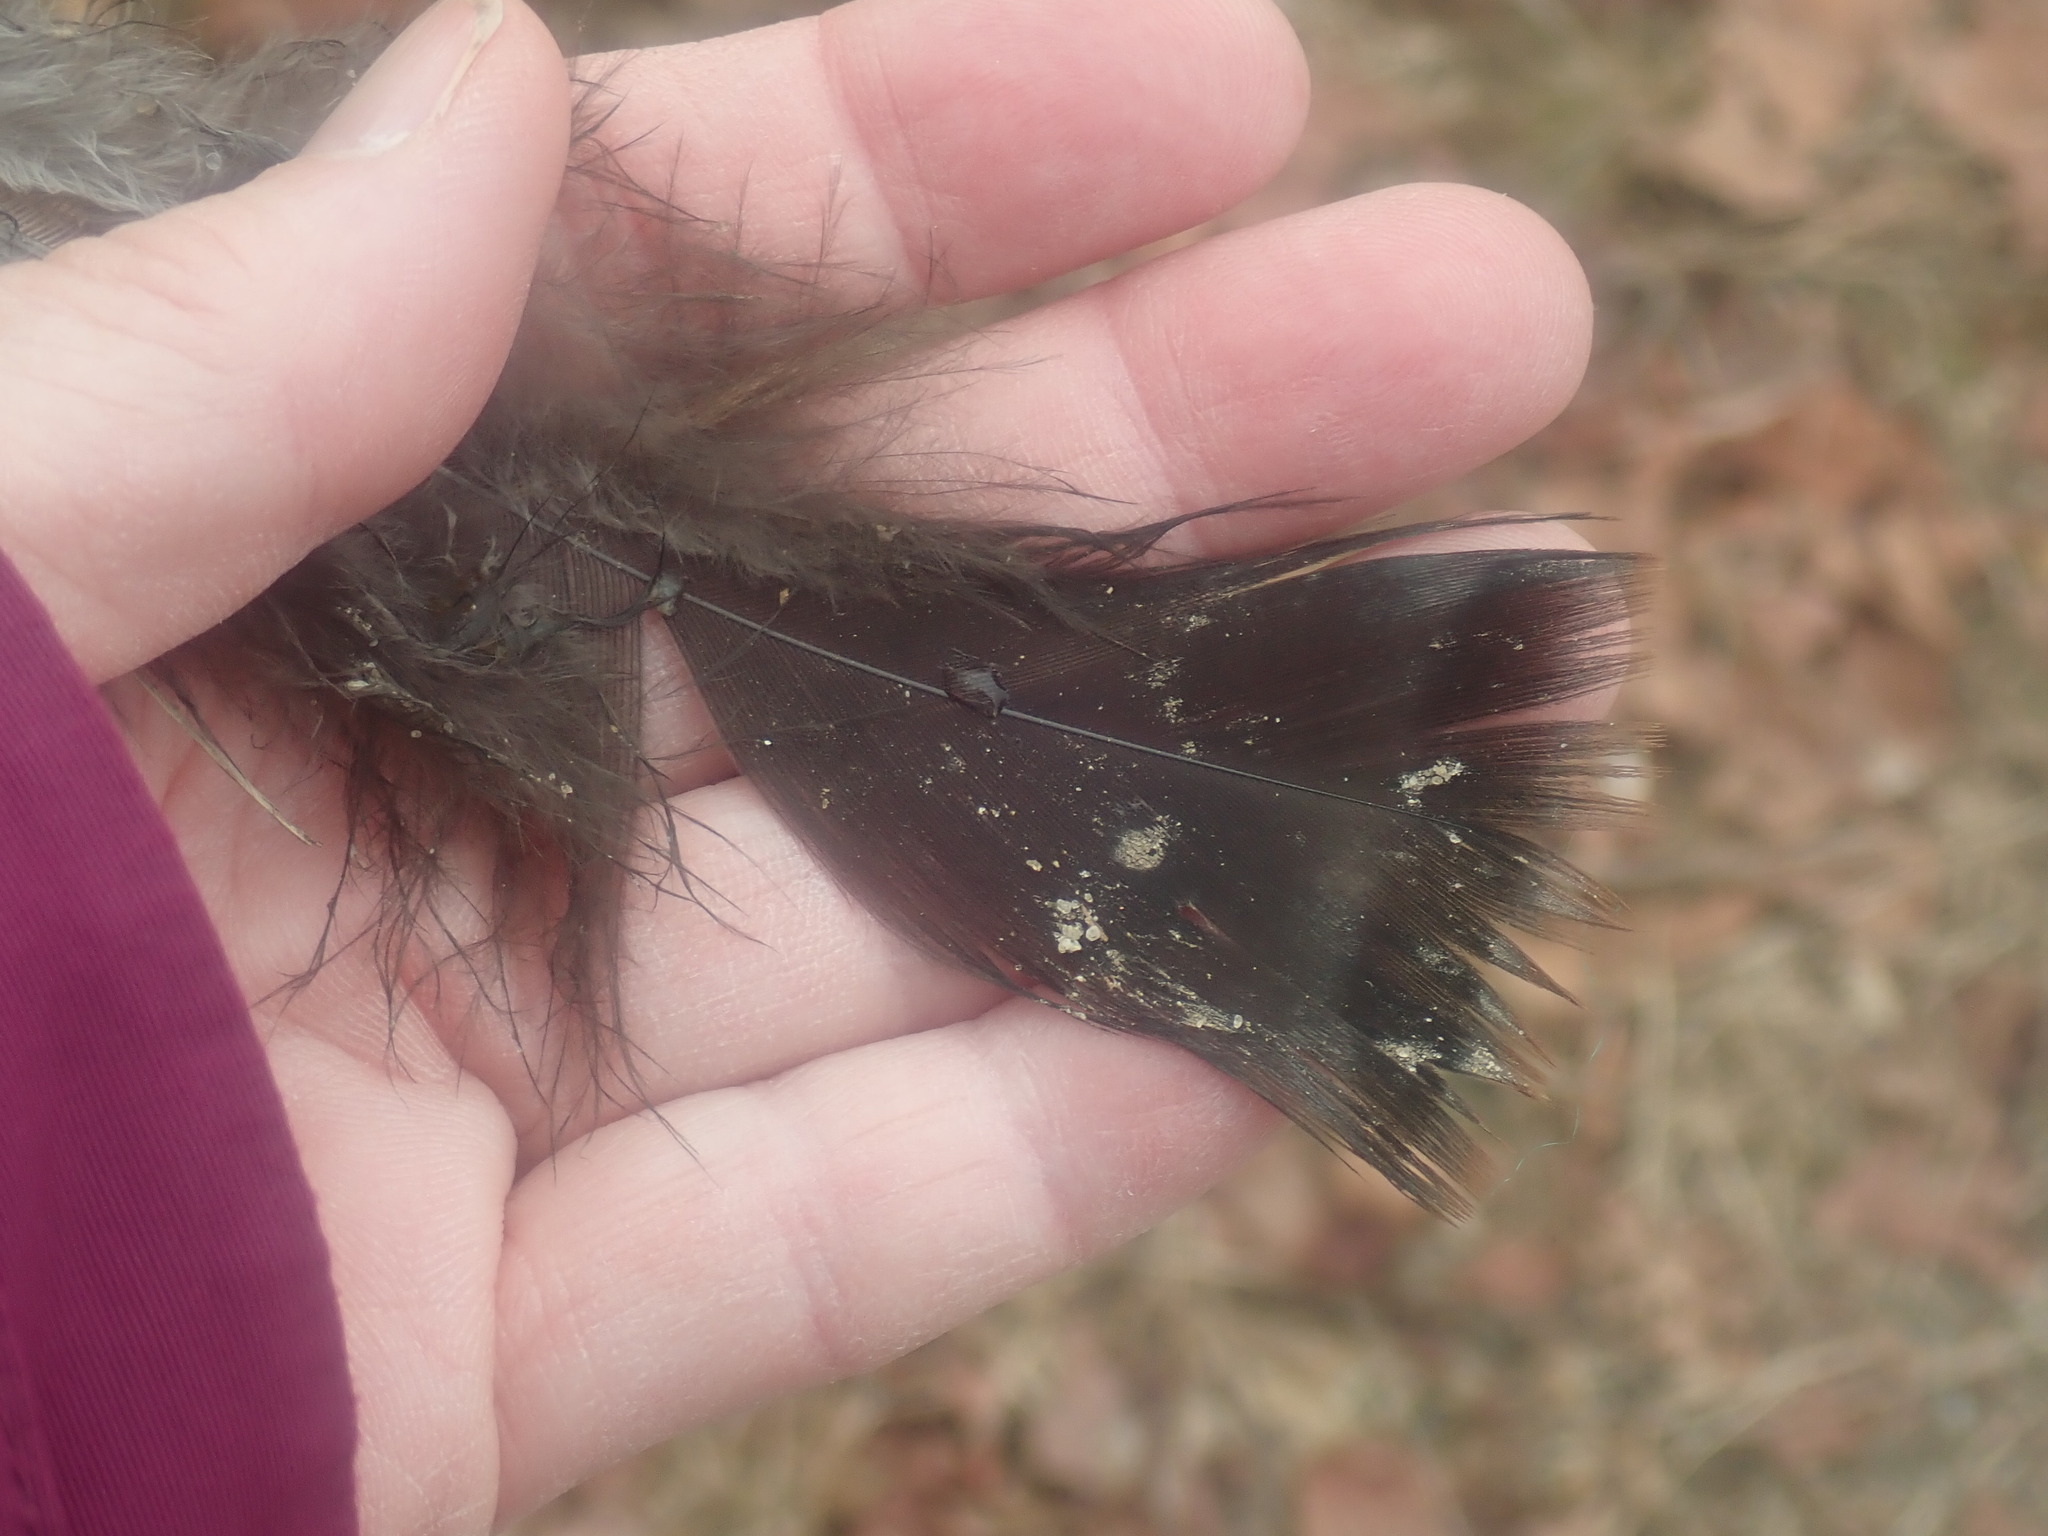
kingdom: Animalia
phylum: Chordata
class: Aves
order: Galliformes
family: Phasianidae
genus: Meleagris
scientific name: Meleagris gallopavo
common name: Wild turkey
